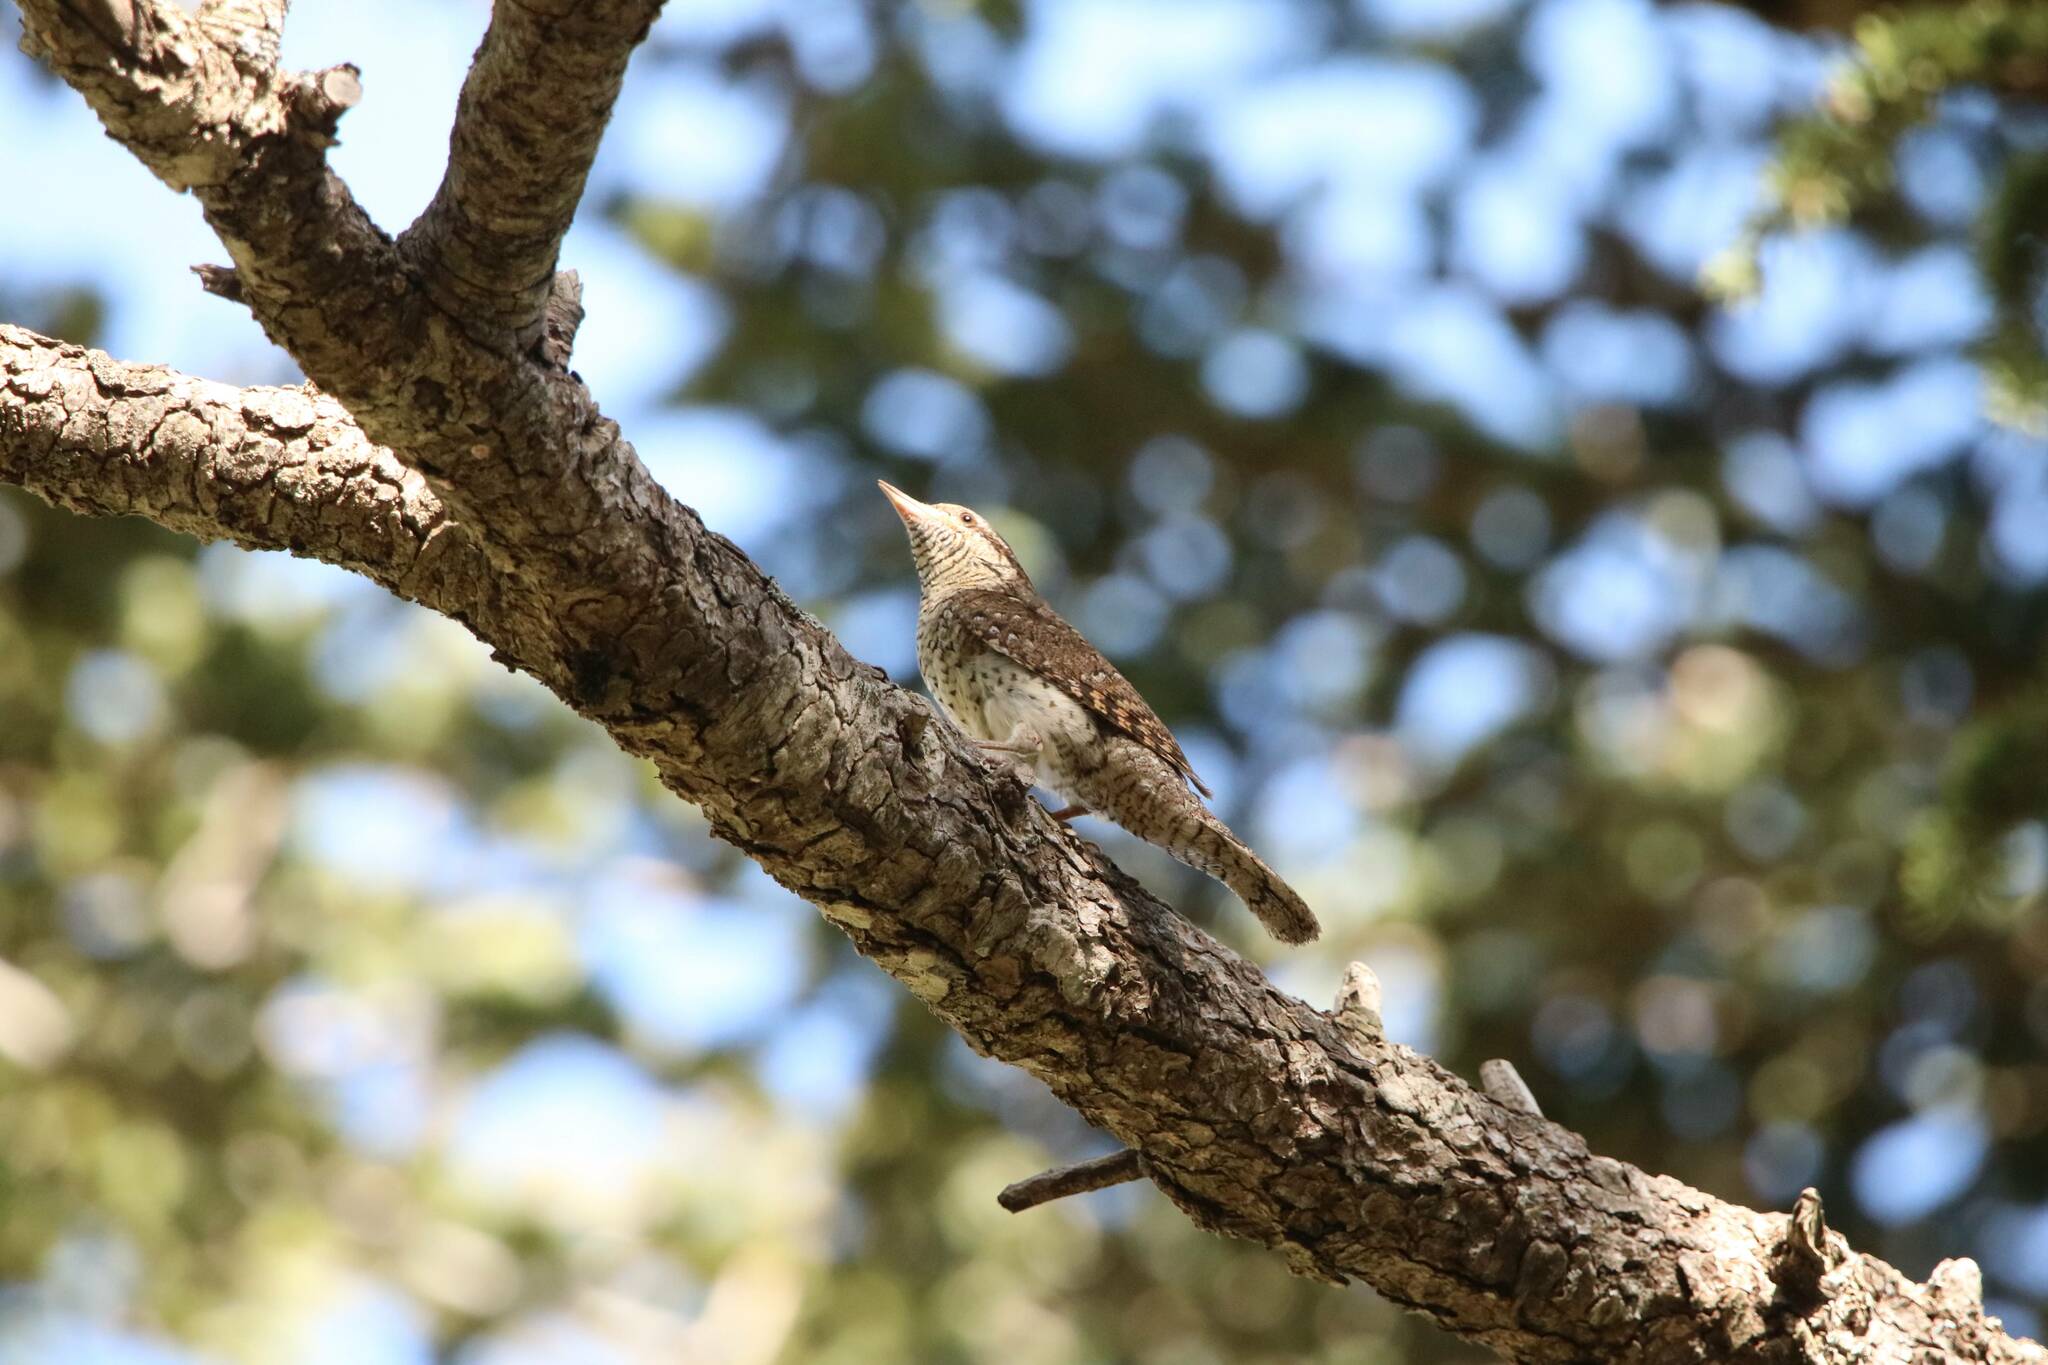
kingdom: Animalia
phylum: Chordata
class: Aves
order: Piciformes
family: Picidae
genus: Jynx
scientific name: Jynx torquilla
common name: Eurasian wryneck
